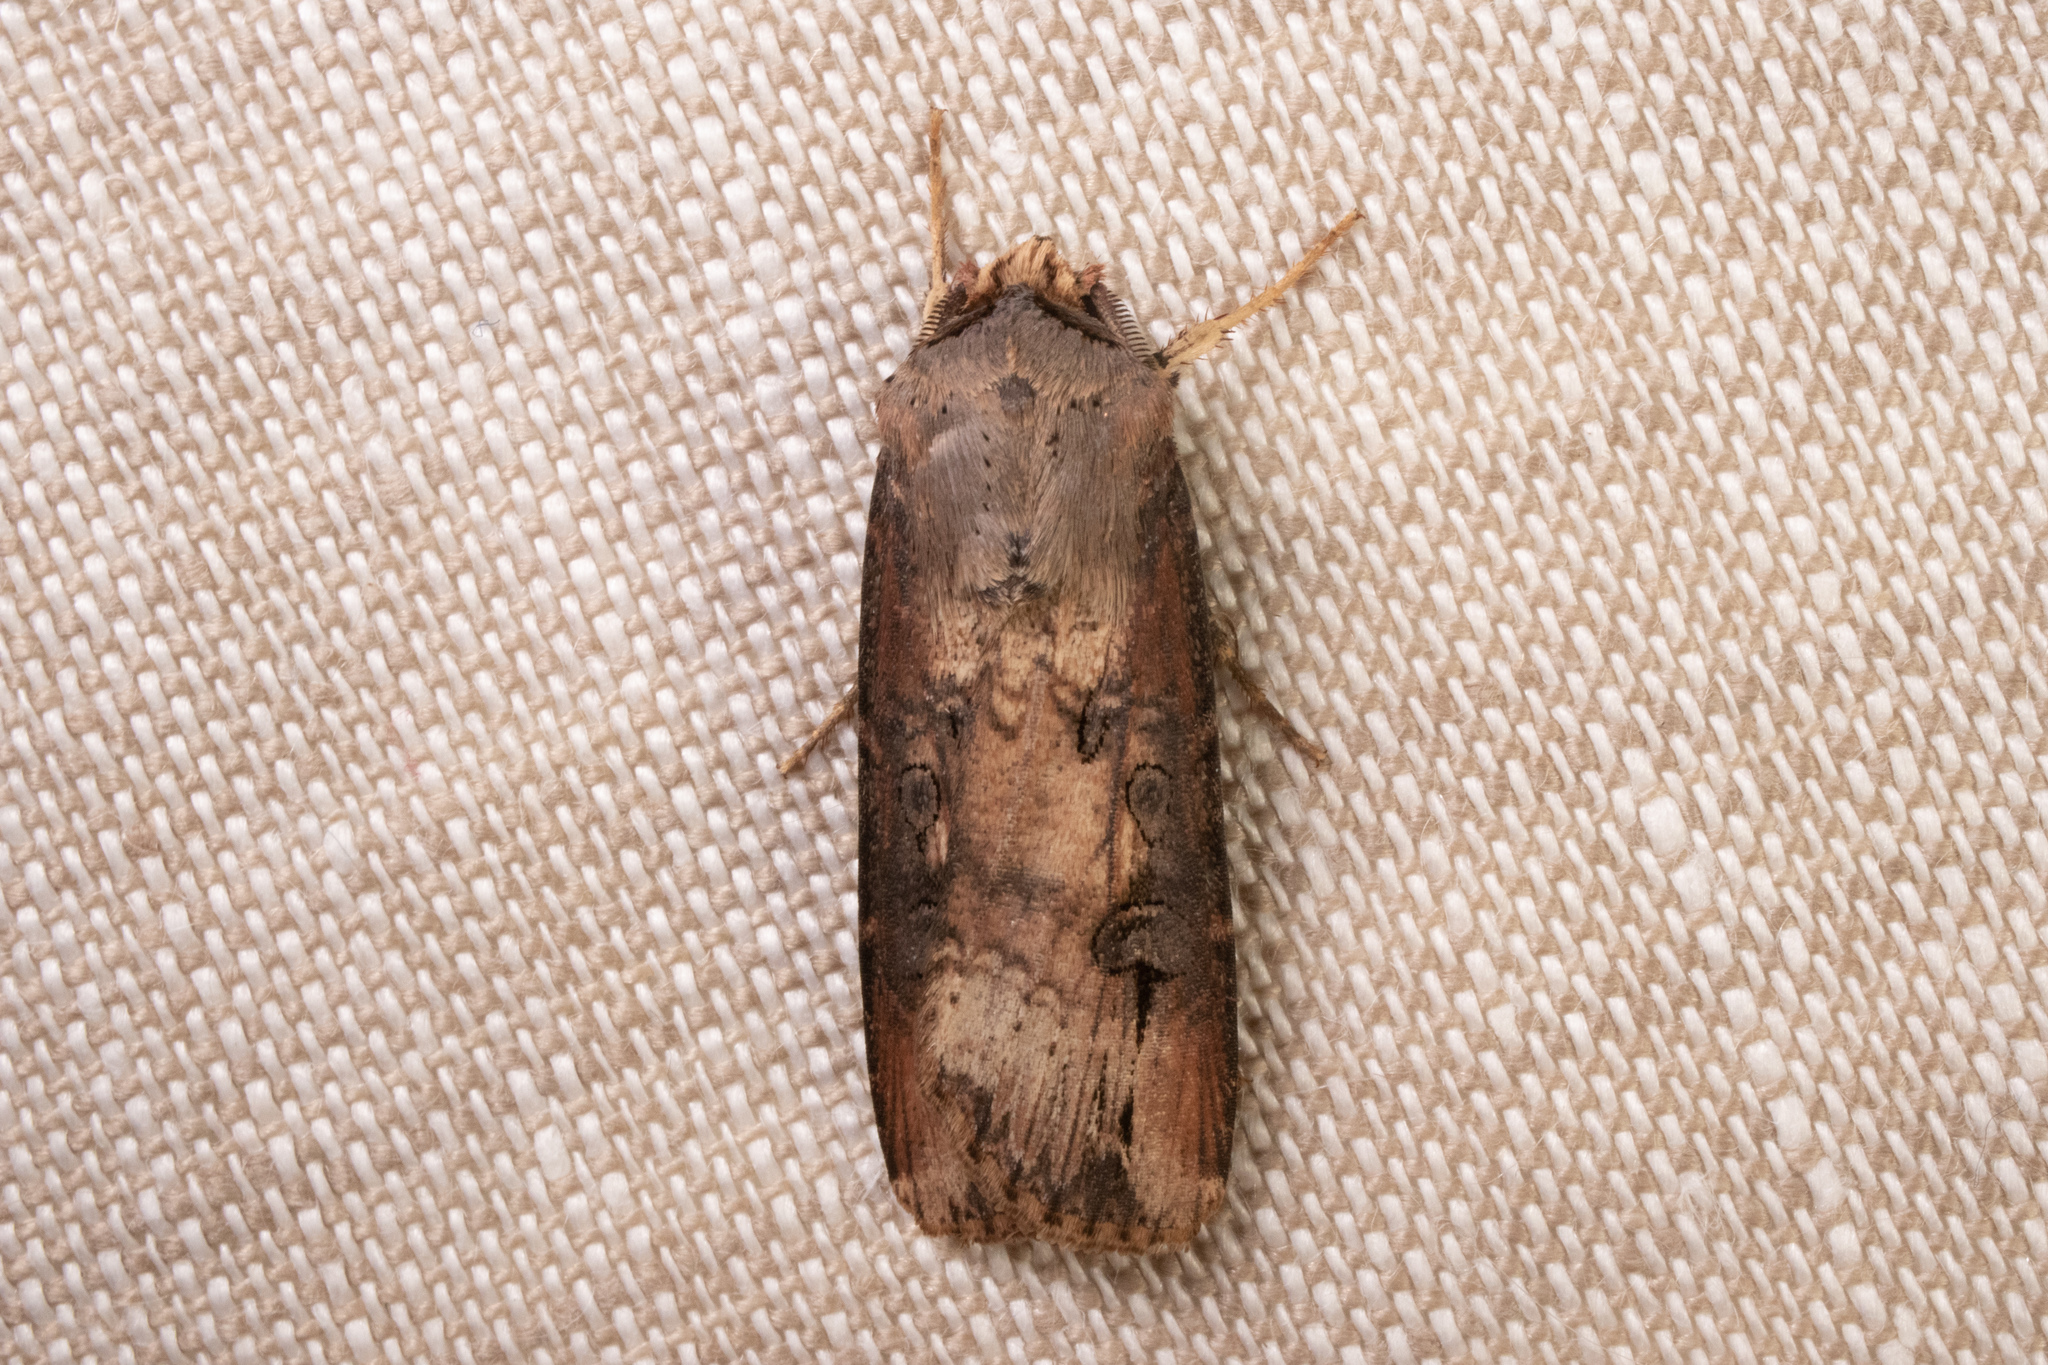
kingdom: Animalia
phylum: Arthropoda
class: Insecta
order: Lepidoptera
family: Noctuidae
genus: Agrotis
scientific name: Agrotis ipsilon
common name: Dark sword-grass
